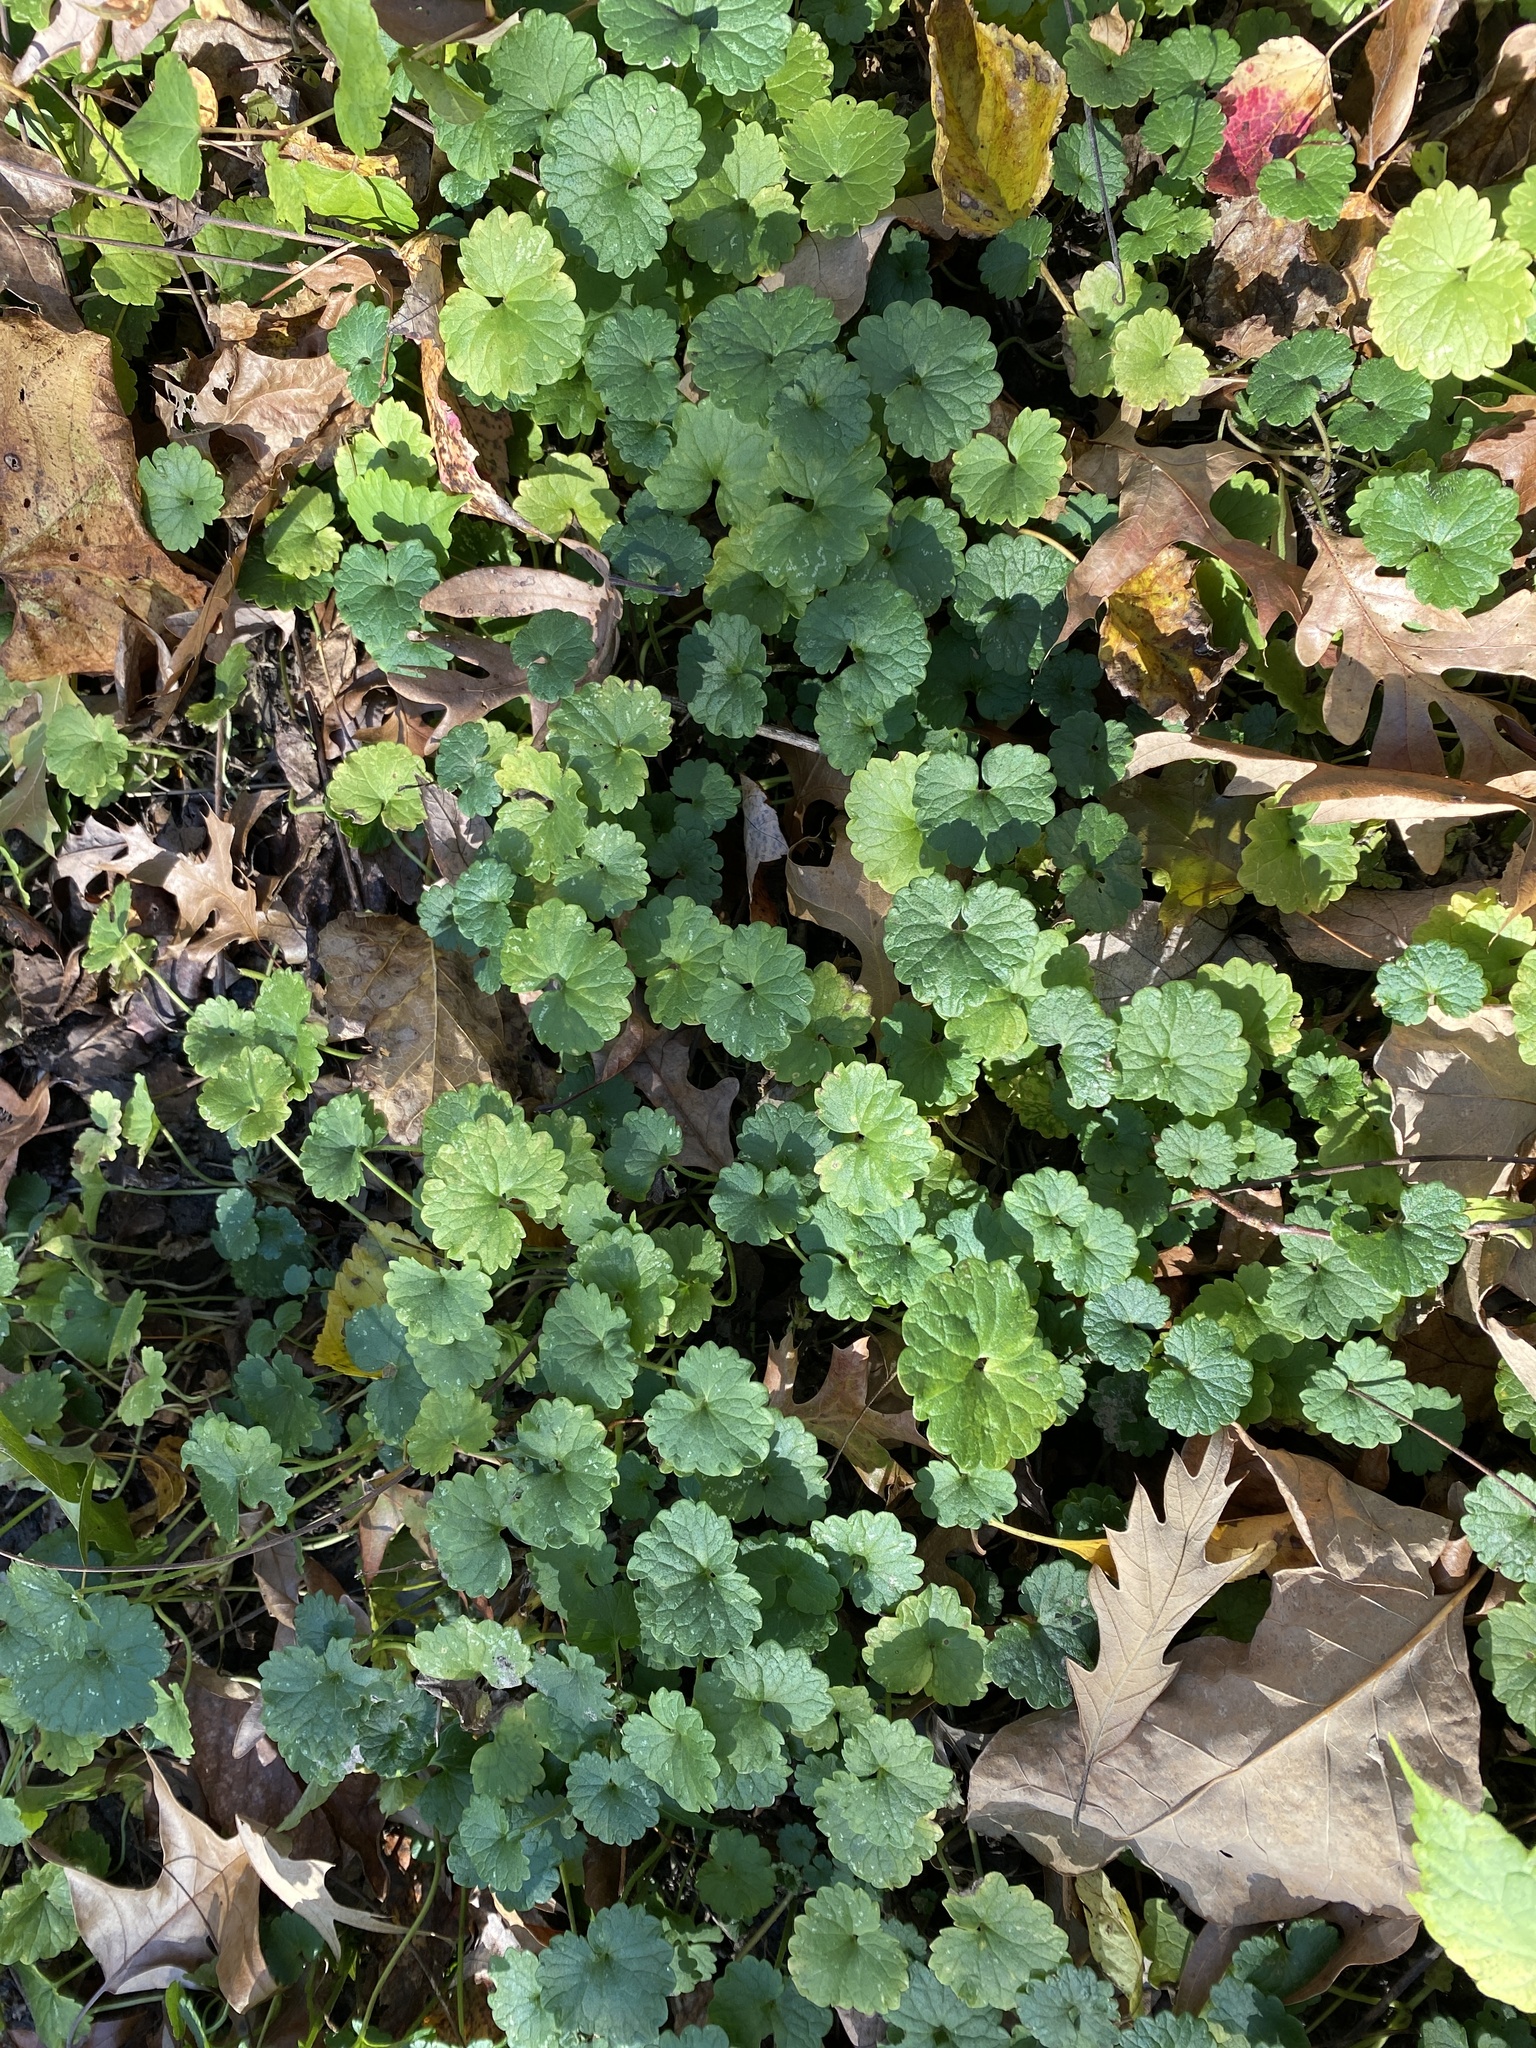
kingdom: Plantae
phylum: Tracheophyta
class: Magnoliopsida
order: Lamiales
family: Lamiaceae
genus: Glechoma
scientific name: Glechoma hederacea
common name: Ground ivy
